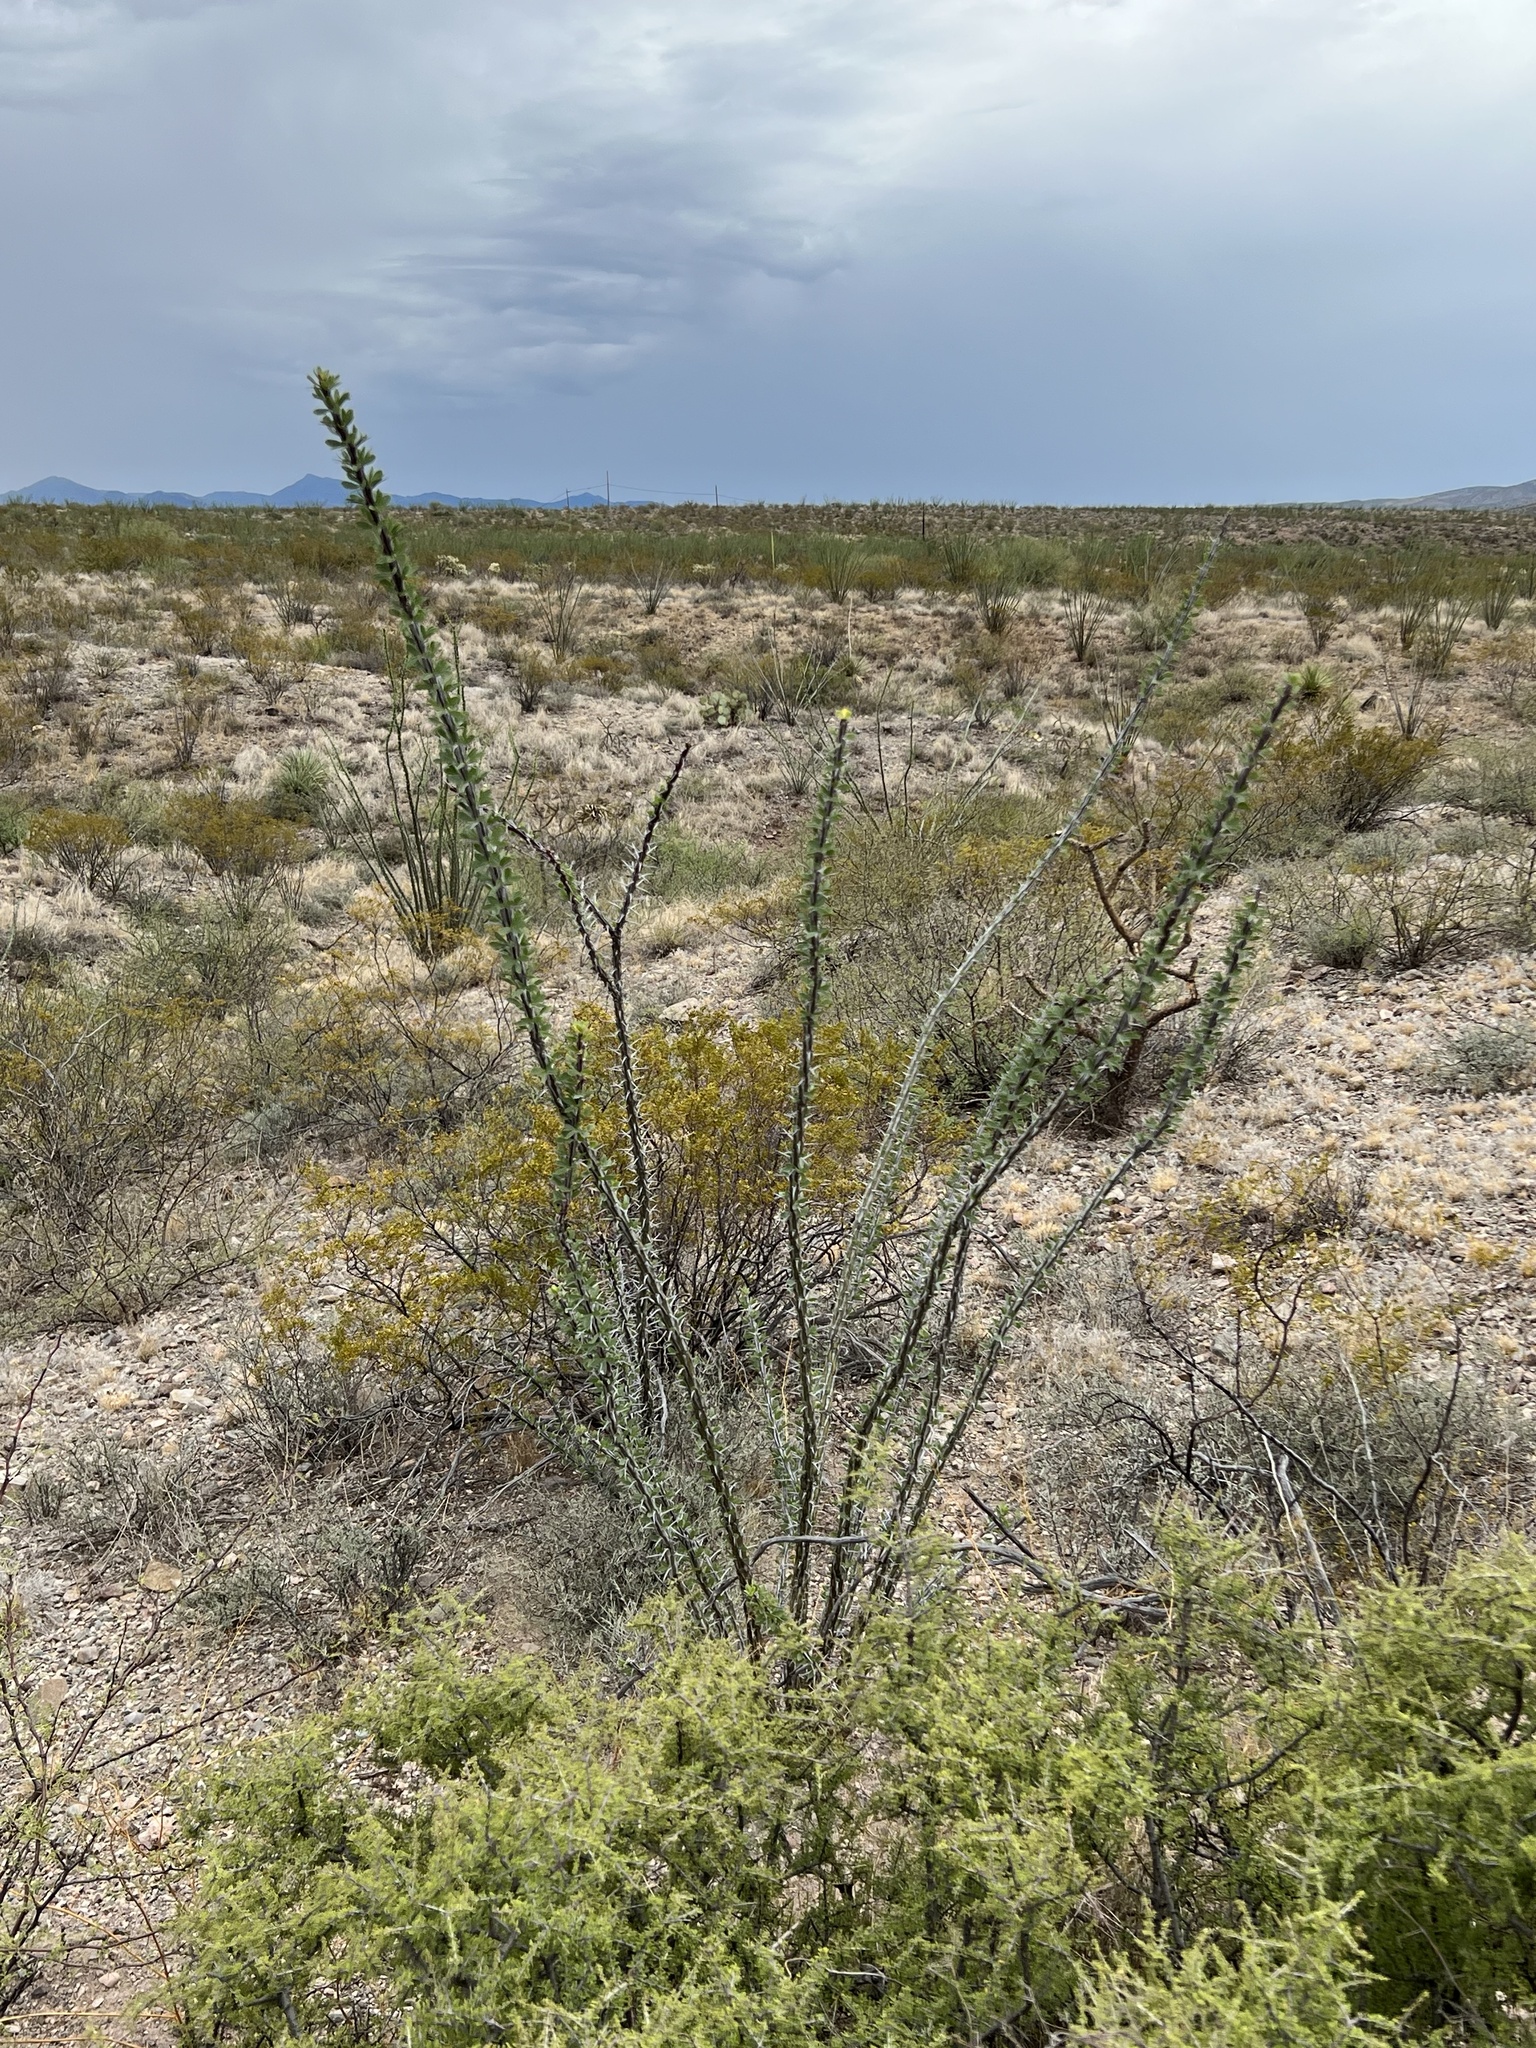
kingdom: Plantae
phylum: Tracheophyta
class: Magnoliopsida
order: Ericales
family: Fouquieriaceae
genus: Fouquieria
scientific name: Fouquieria splendens
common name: Vine-cactus
